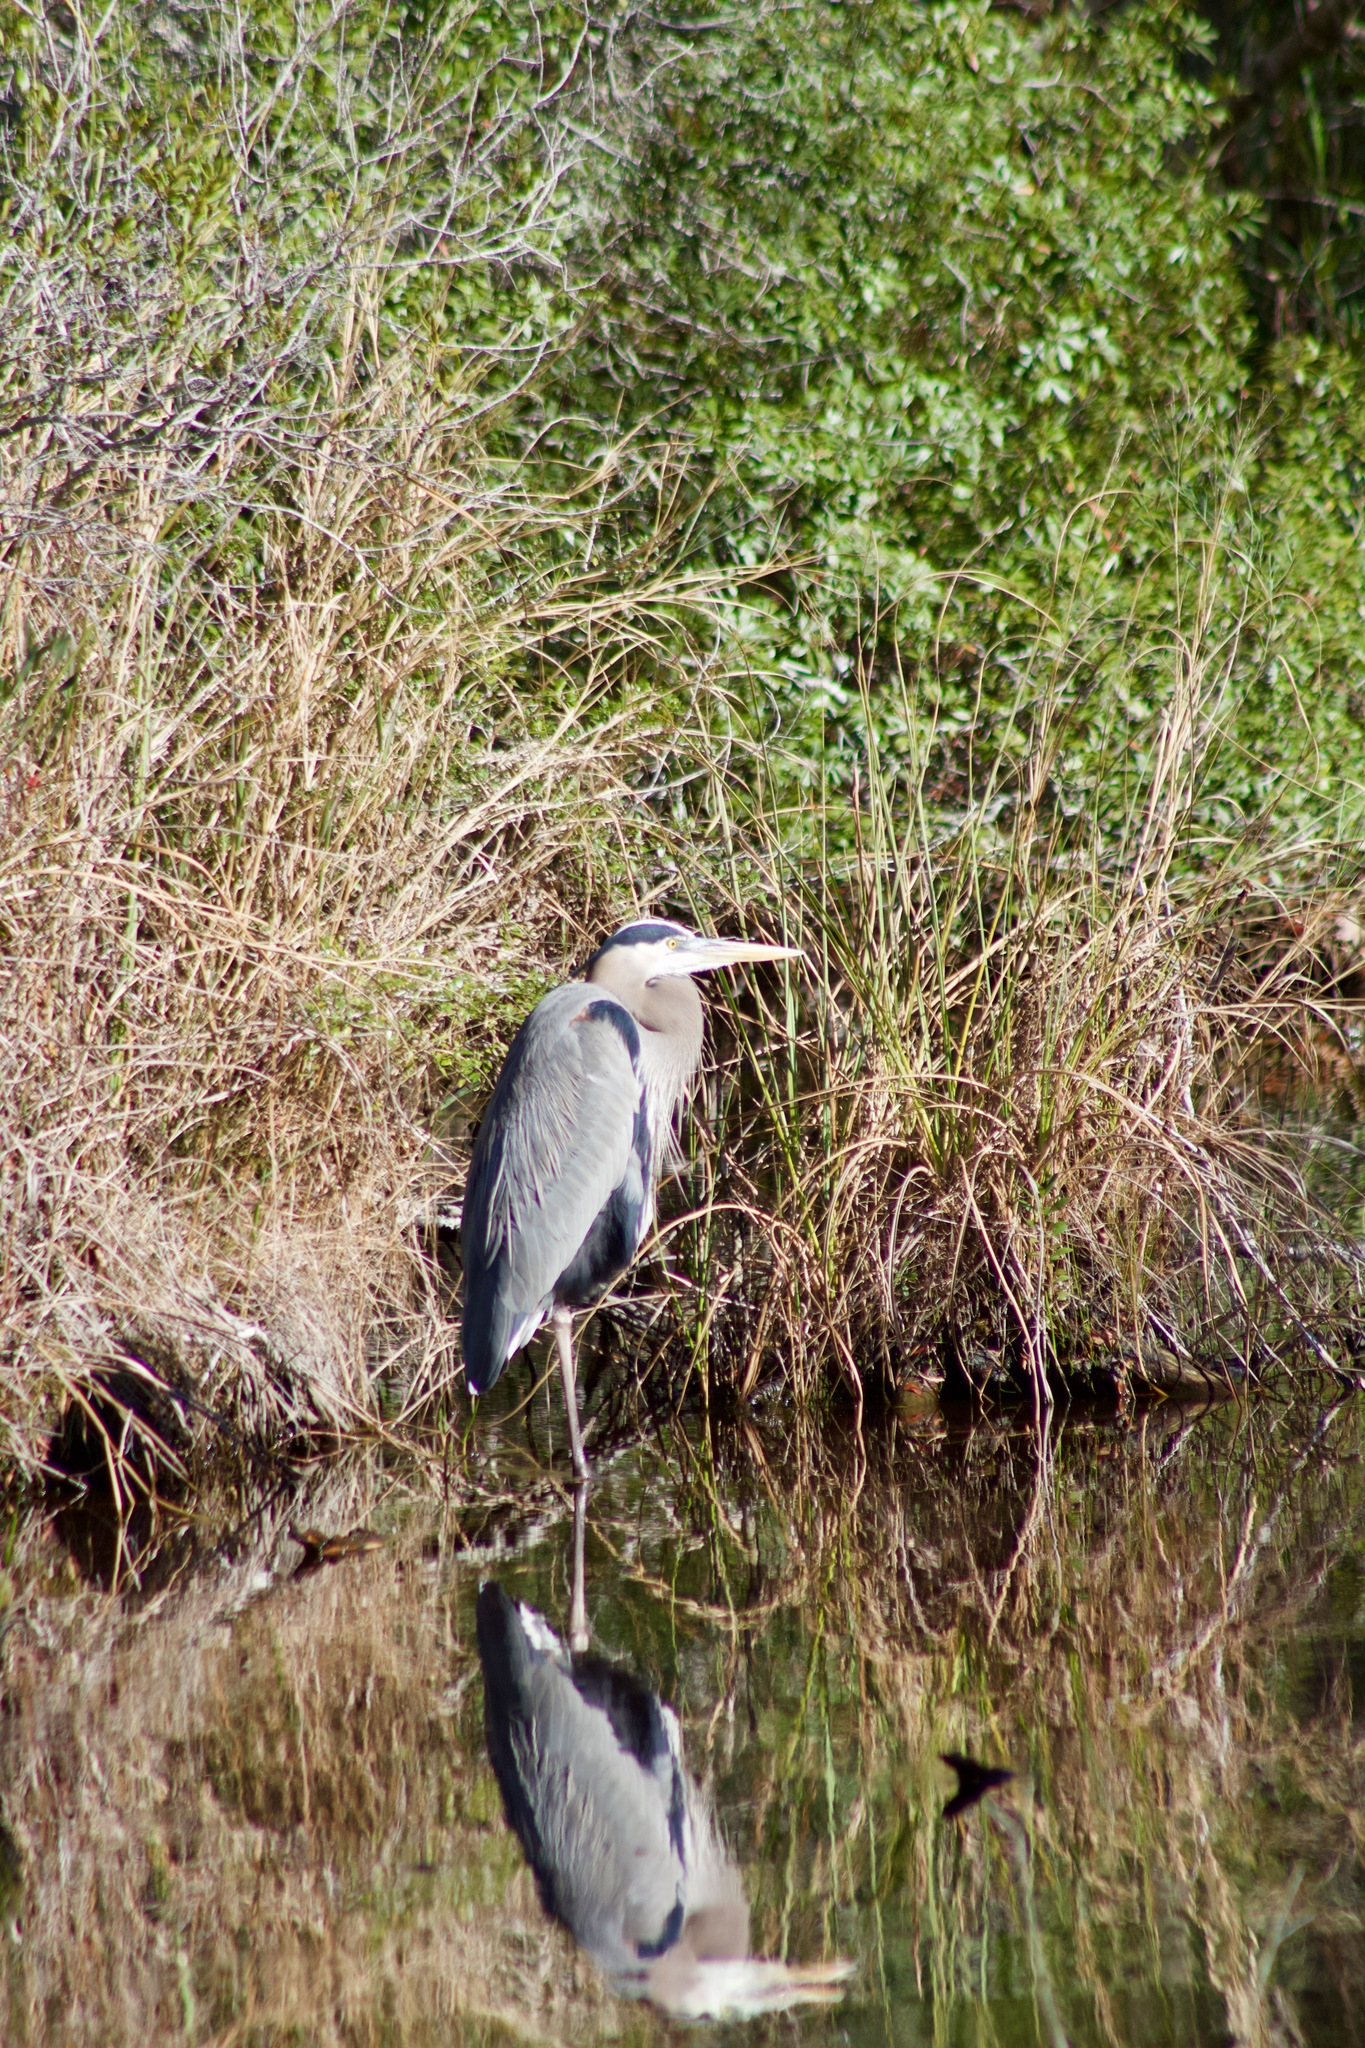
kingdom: Animalia
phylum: Chordata
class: Aves
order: Pelecaniformes
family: Ardeidae
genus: Ardea
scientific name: Ardea herodias
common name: Great blue heron
